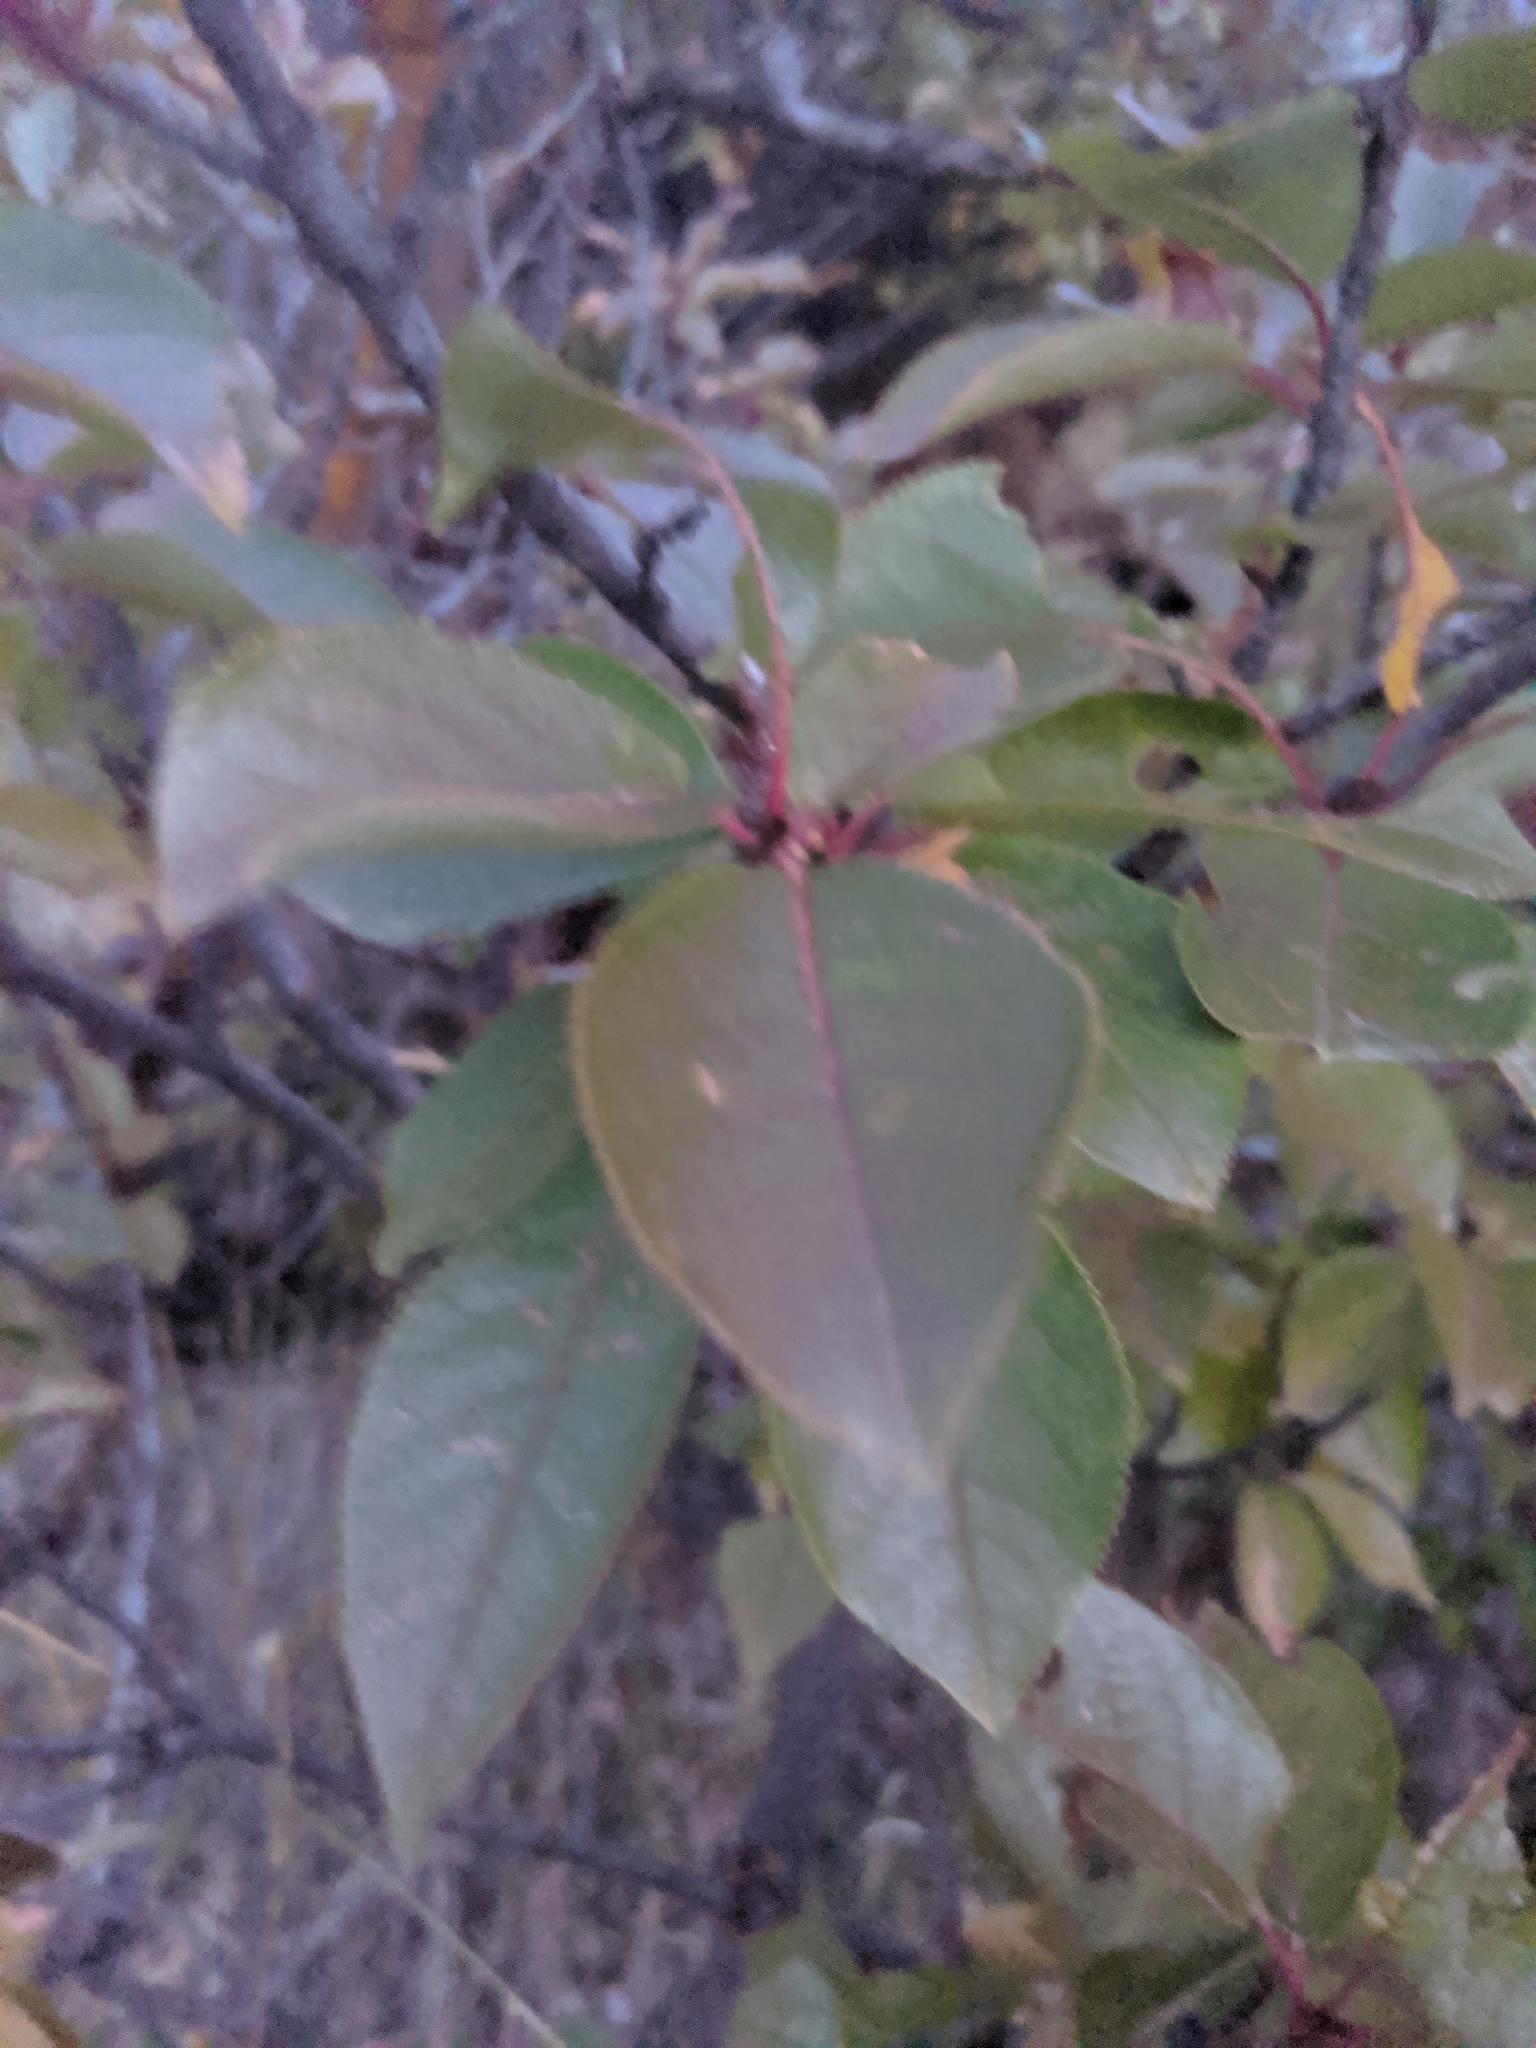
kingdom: Plantae
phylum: Tracheophyta
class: Magnoliopsida
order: Rosales
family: Rosaceae
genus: Prunus
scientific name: Prunus virginiana
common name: Chokecherry
